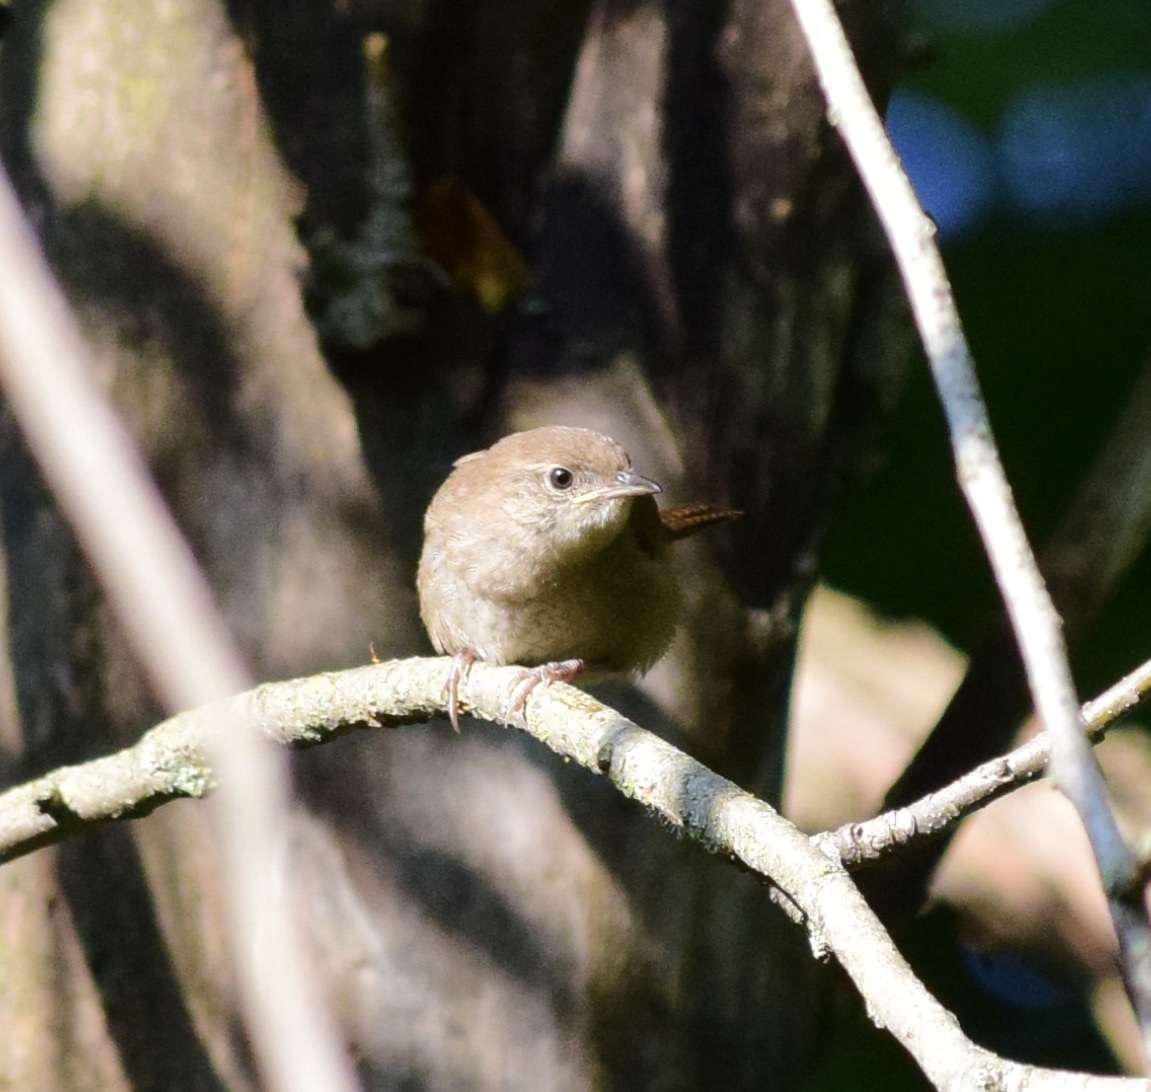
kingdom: Animalia
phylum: Chordata
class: Aves
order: Passeriformes
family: Troglodytidae
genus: Troglodytes
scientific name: Troglodytes aedon
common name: House wren
